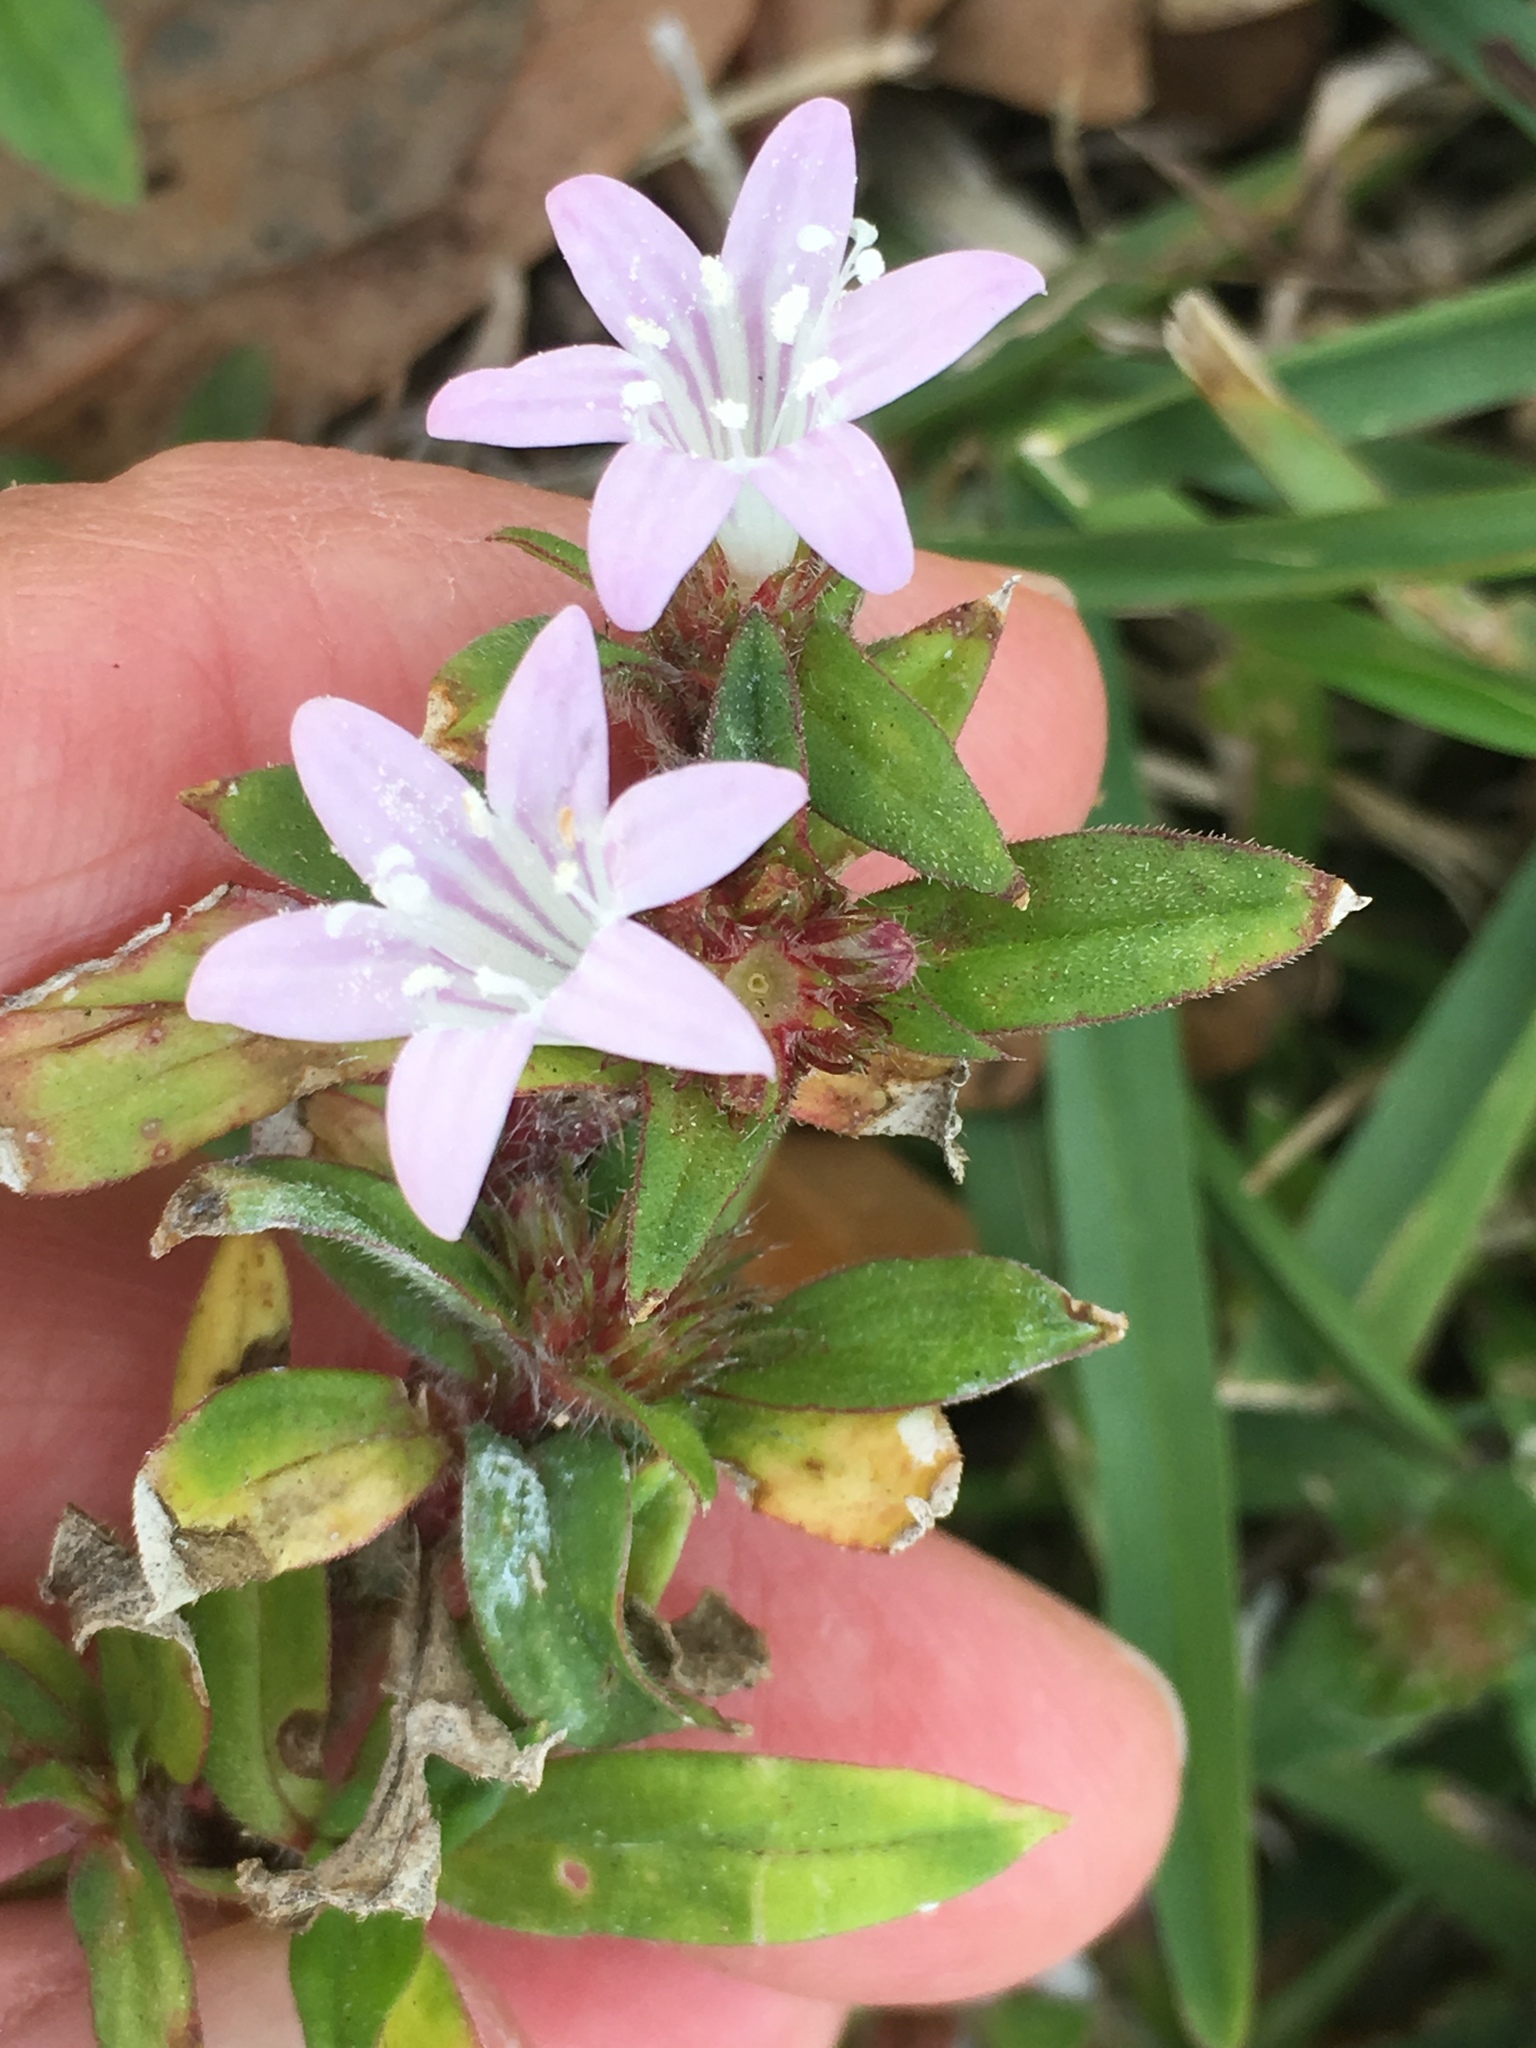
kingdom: Plantae
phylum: Tracheophyta
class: Magnoliopsida
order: Gentianales
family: Rubiaceae
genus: Richardia
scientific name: Richardia grandiflora
